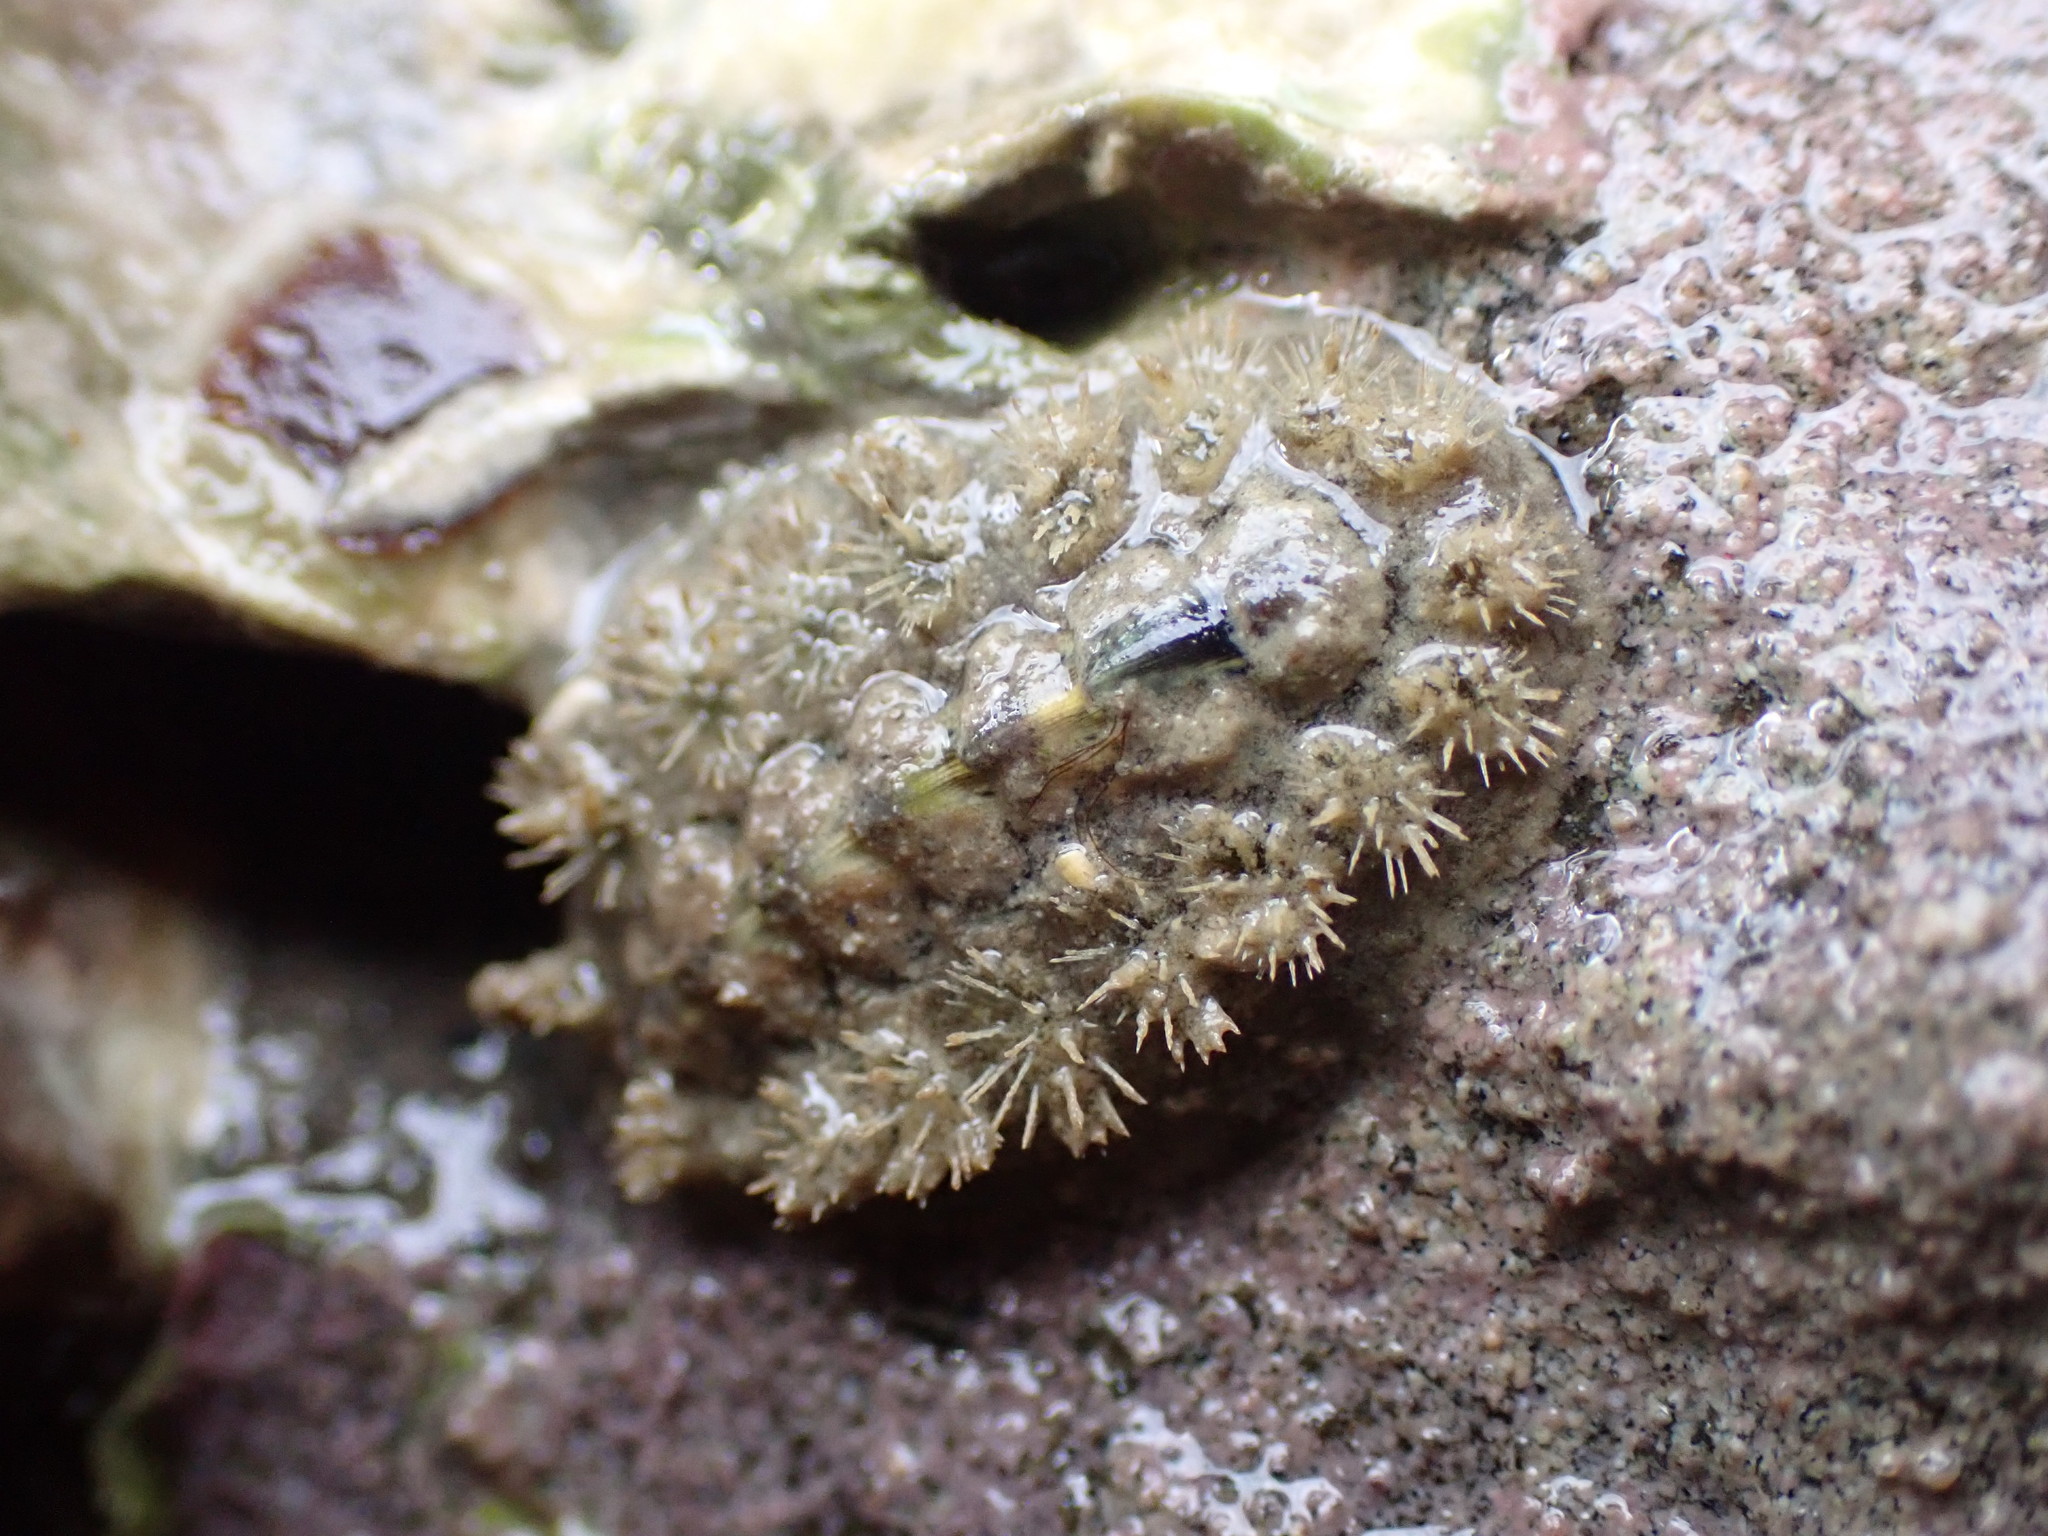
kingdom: Animalia
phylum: Mollusca
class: Polyplacophora
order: Chitonida
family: Acanthochitonidae
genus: Acanthochitona
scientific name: Acanthochitona zelandica
